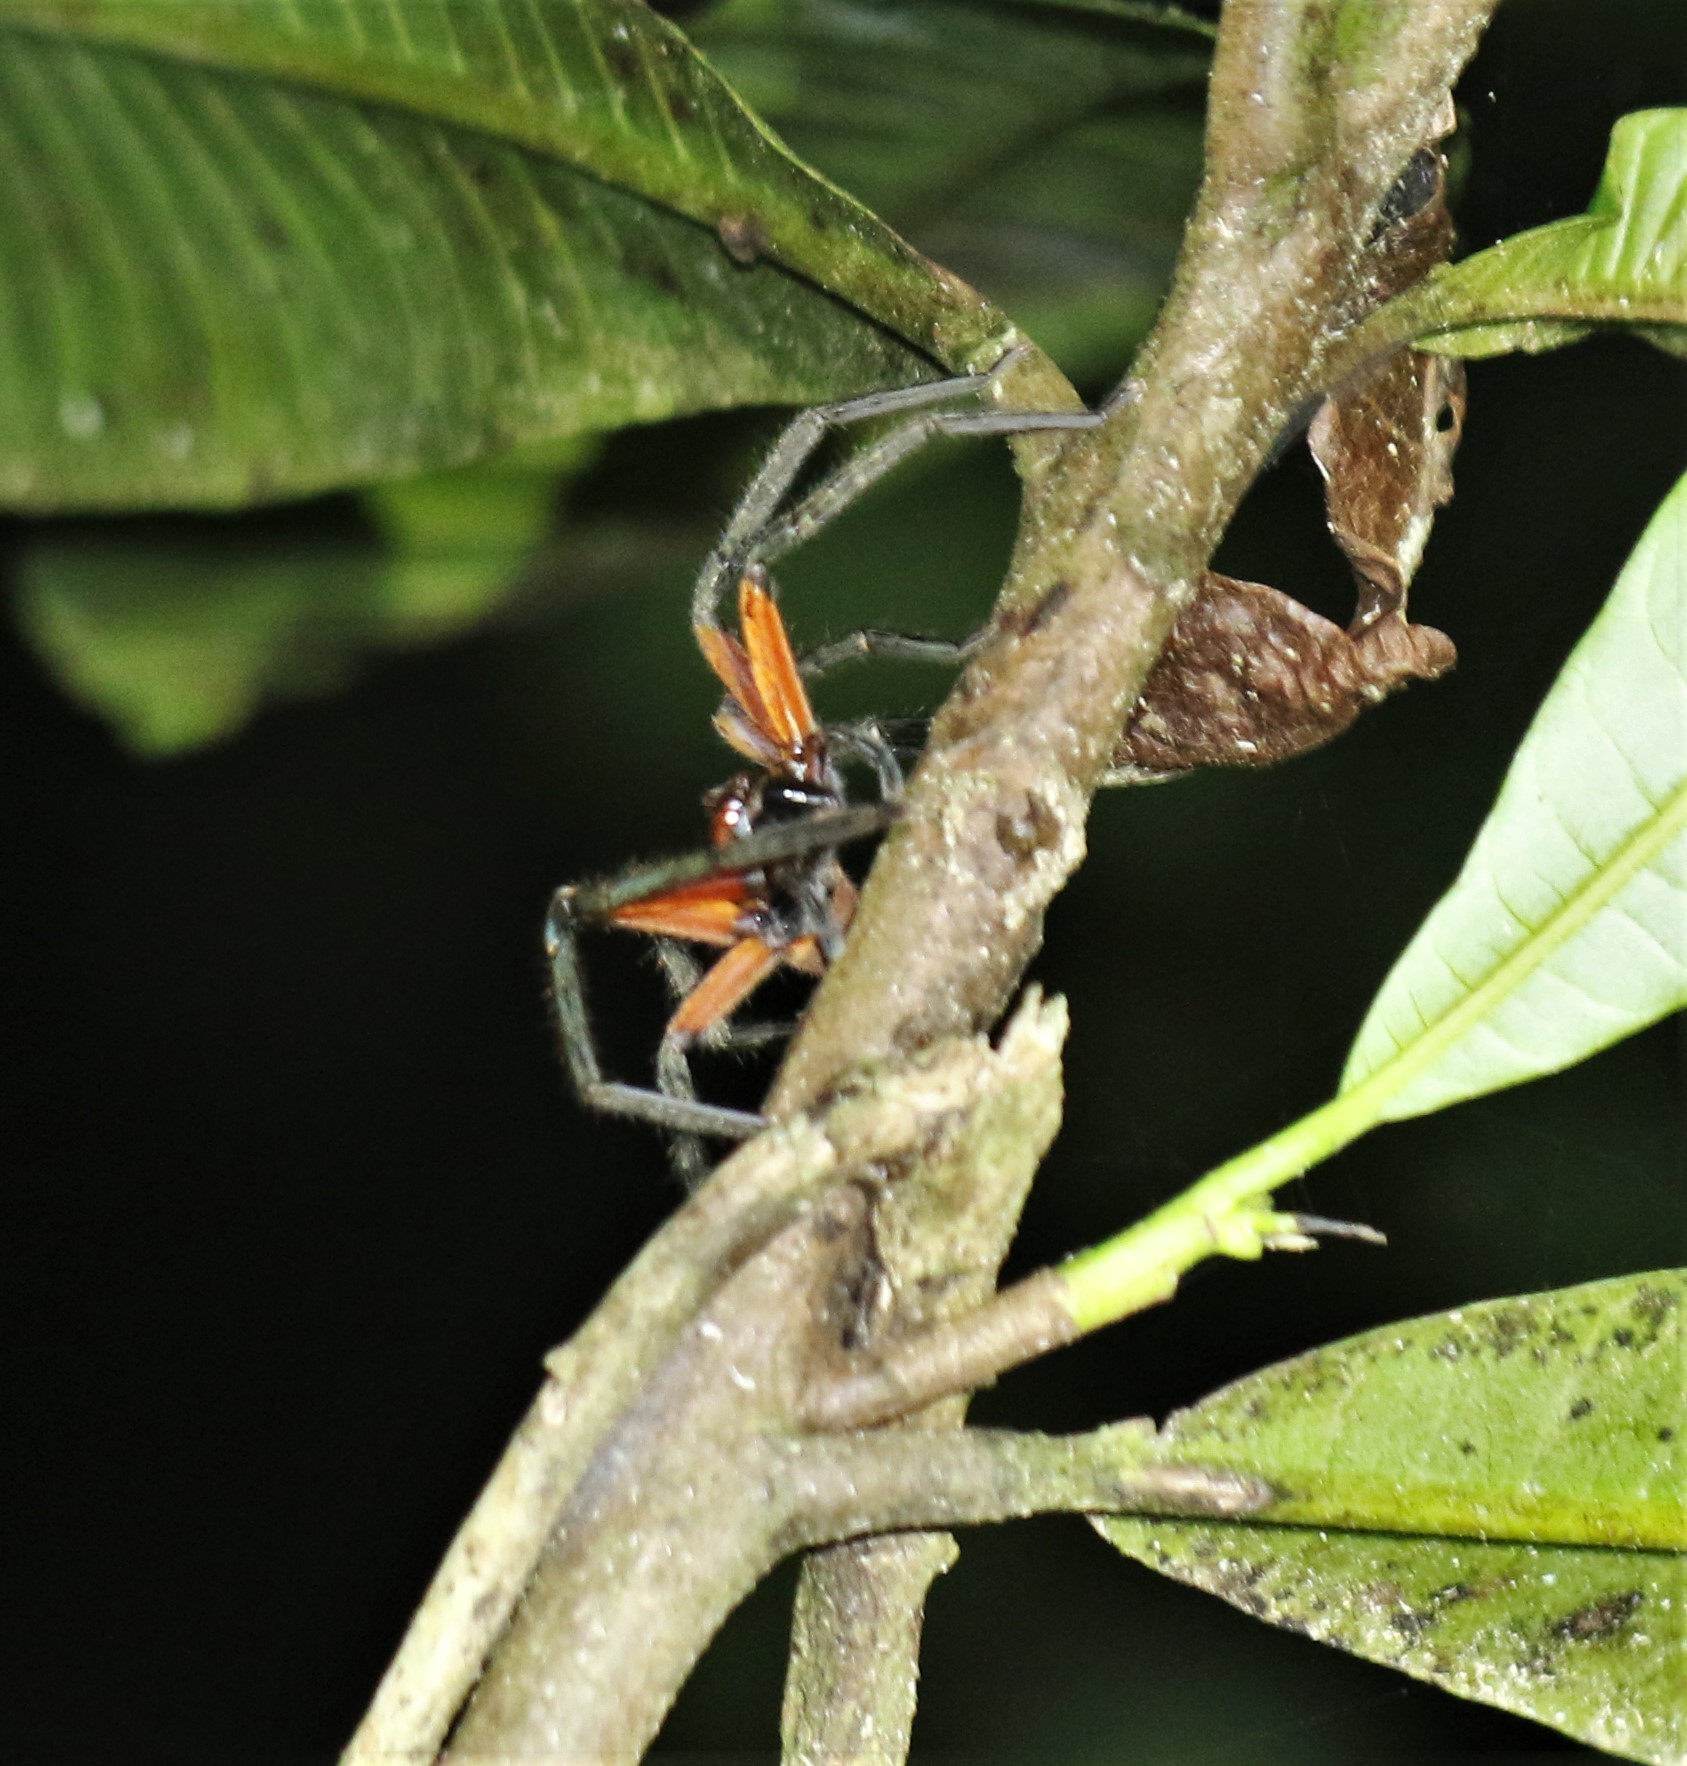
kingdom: Animalia
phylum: Arthropoda
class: Arachnida
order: Araneae
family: Sparassidae
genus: Sadala
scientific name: Sadala rufa
